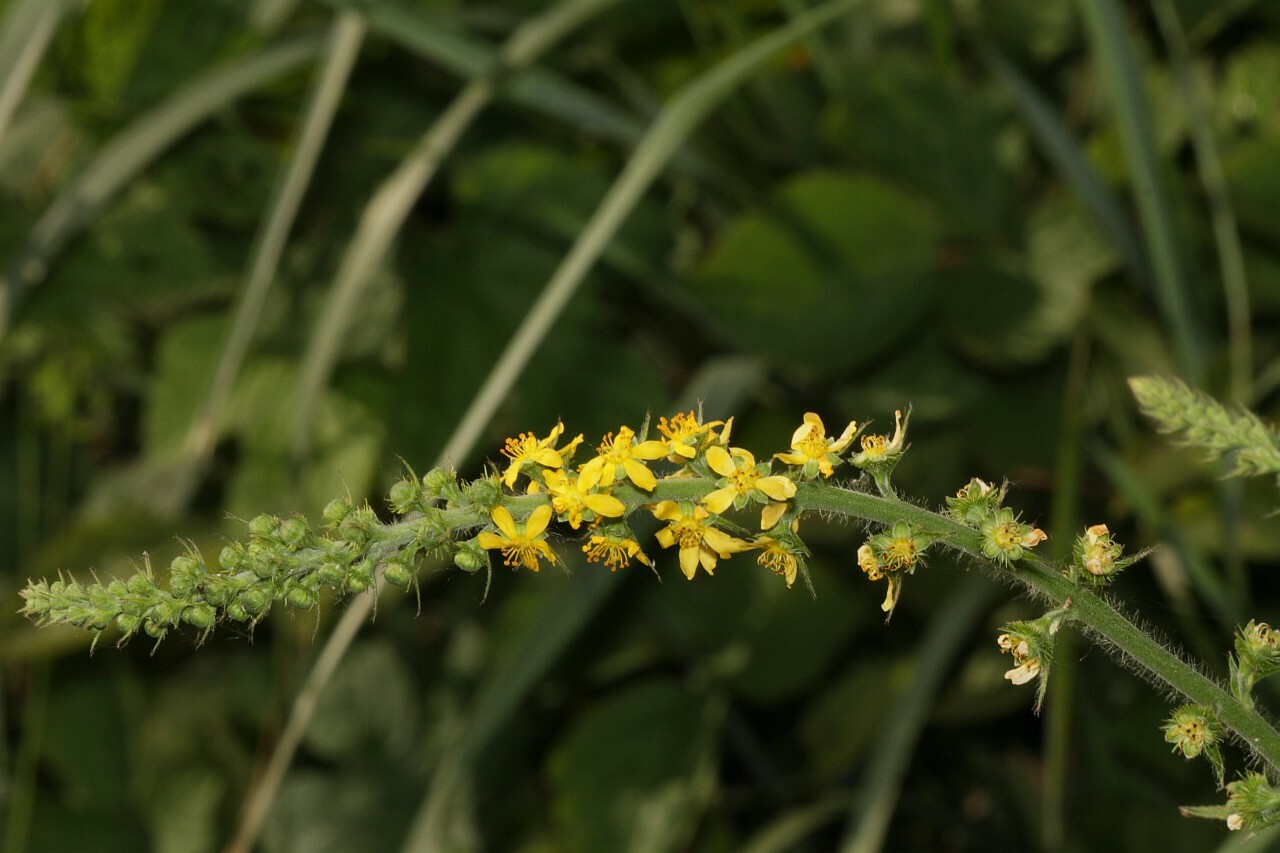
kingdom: Plantae
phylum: Tracheophyta
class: Magnoliopsida
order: Rosales
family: Rosaceae
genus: Agrimonia
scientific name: Agrimonia eupatoria
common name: Agrimony
